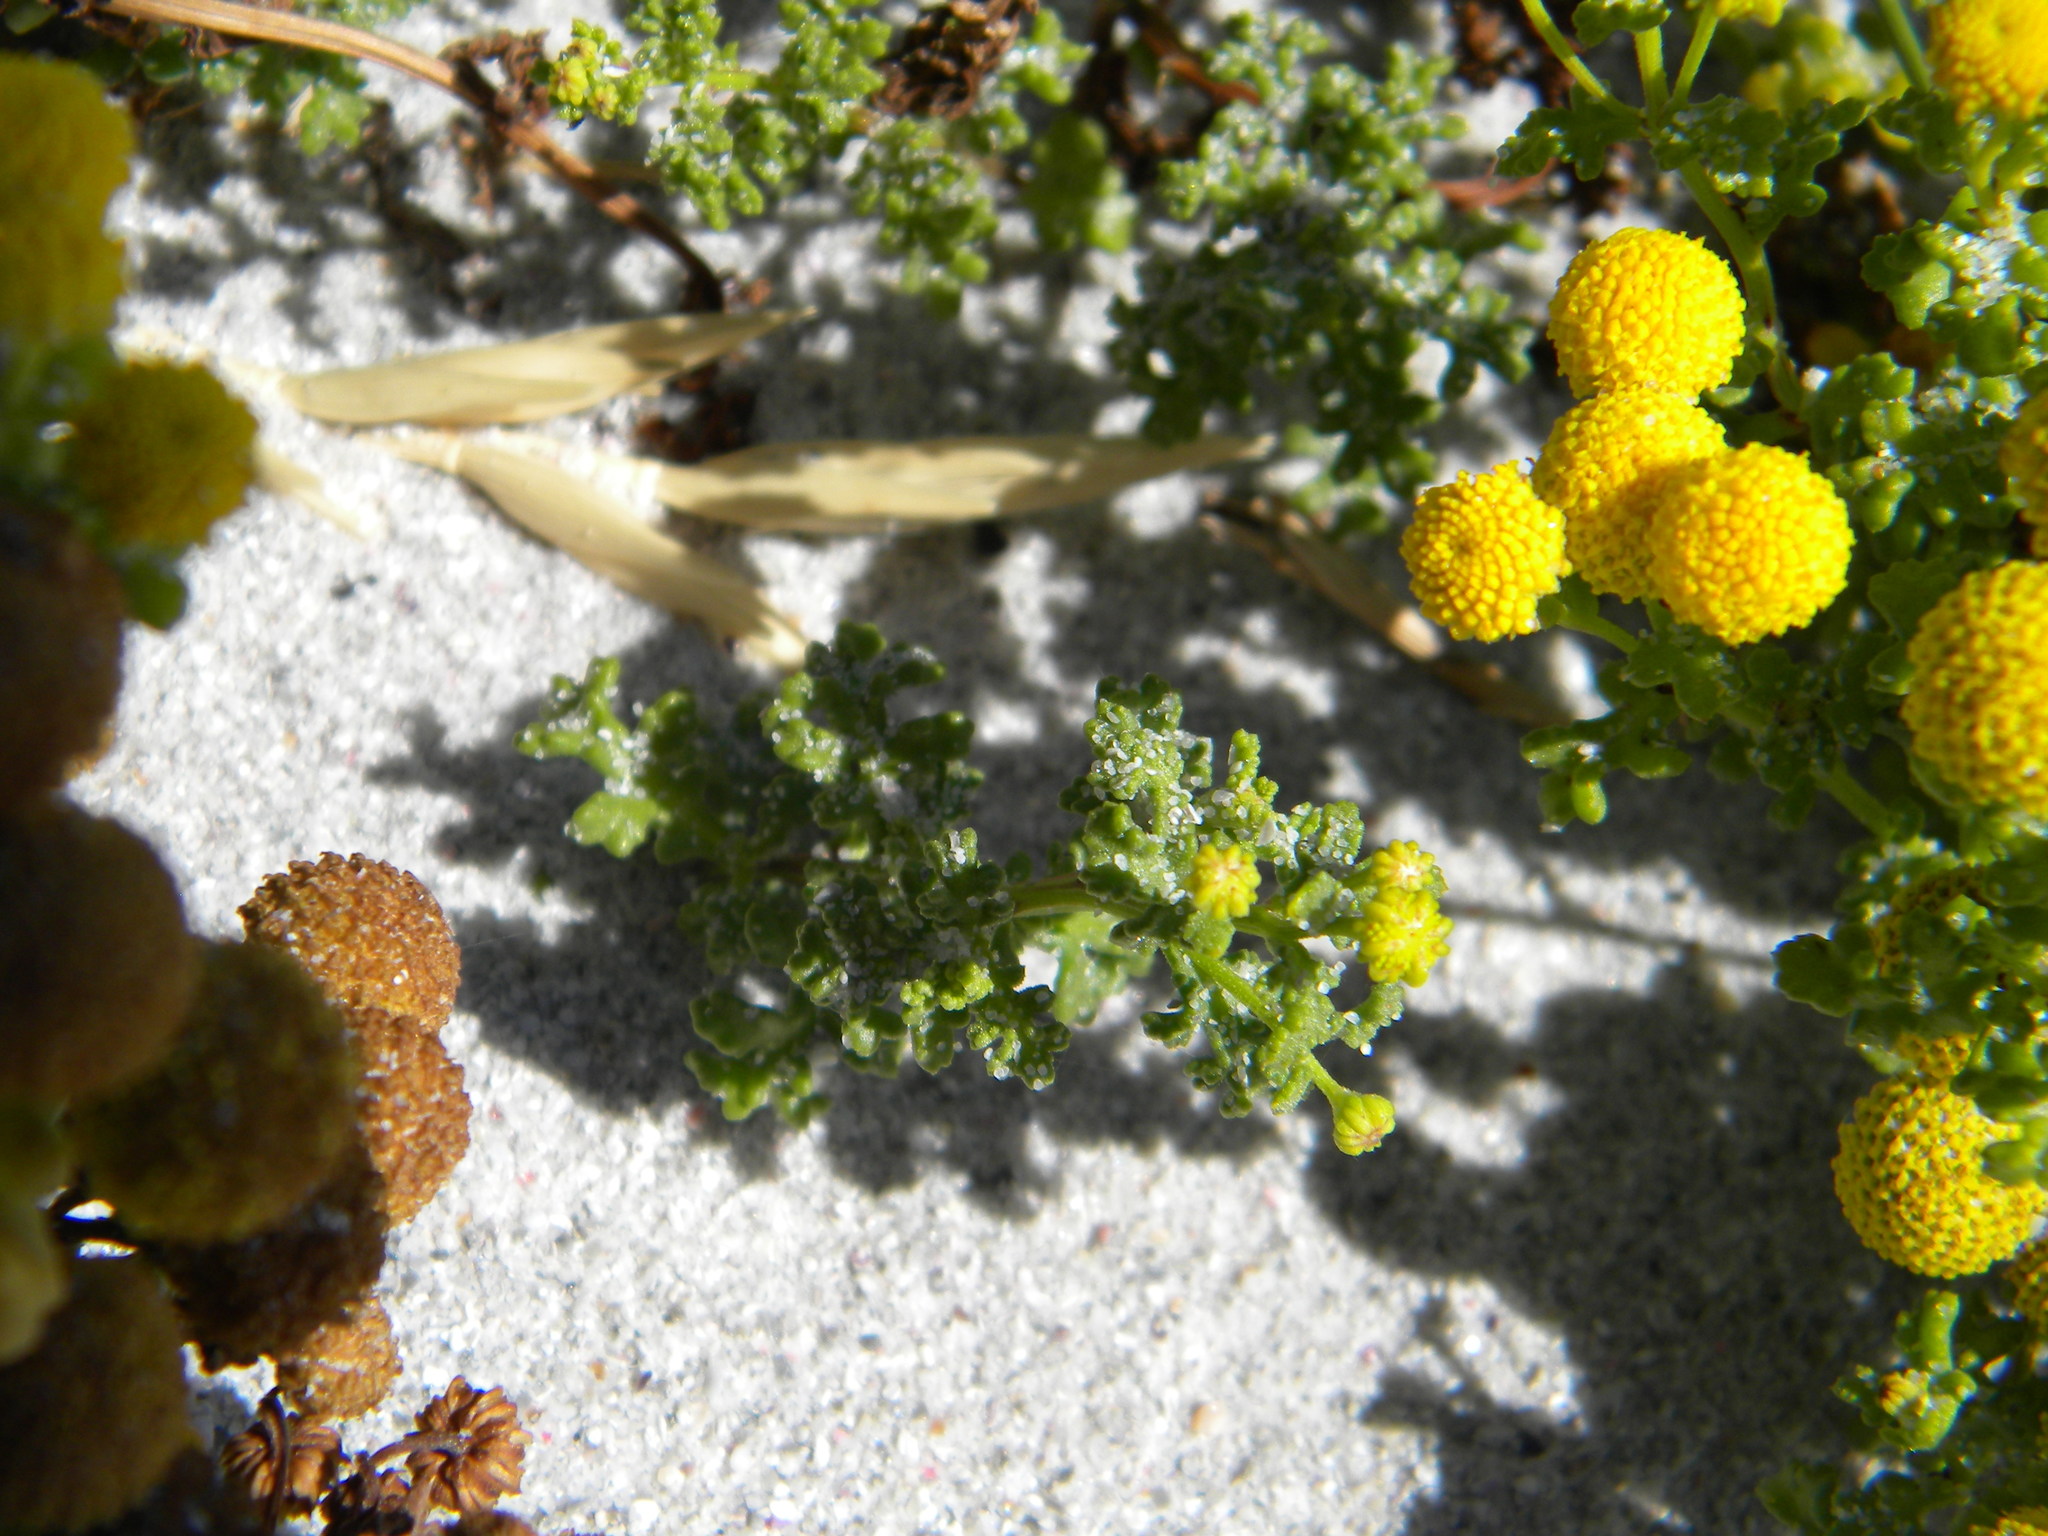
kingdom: Plantae
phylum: Tracheophyta
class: Magnoliopsida
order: Asterales
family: Asteraceae
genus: Oncosiphon
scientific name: Oncosiphon sabulosus
